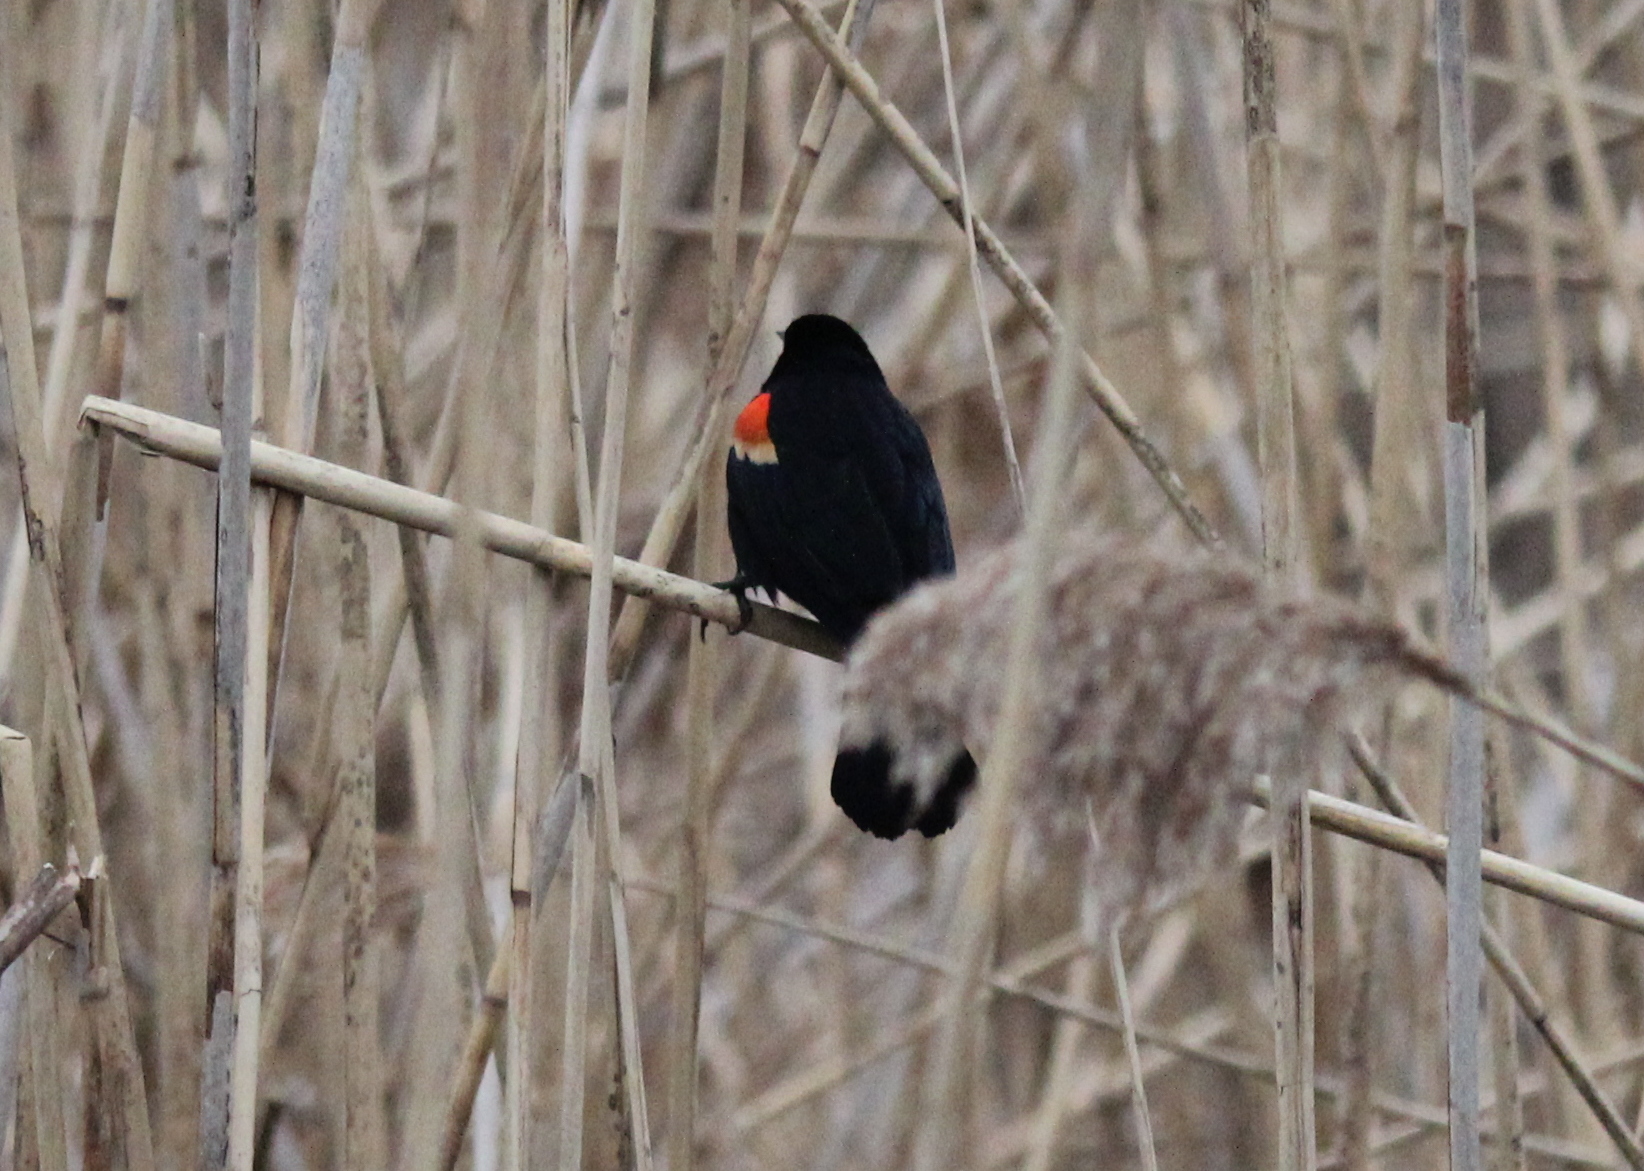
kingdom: Animalia
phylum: Chordata
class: Aves
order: Passeriformes
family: Icteridae
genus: Agelaius
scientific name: Agelaius phoeniceus
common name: Red-winged blackbird
